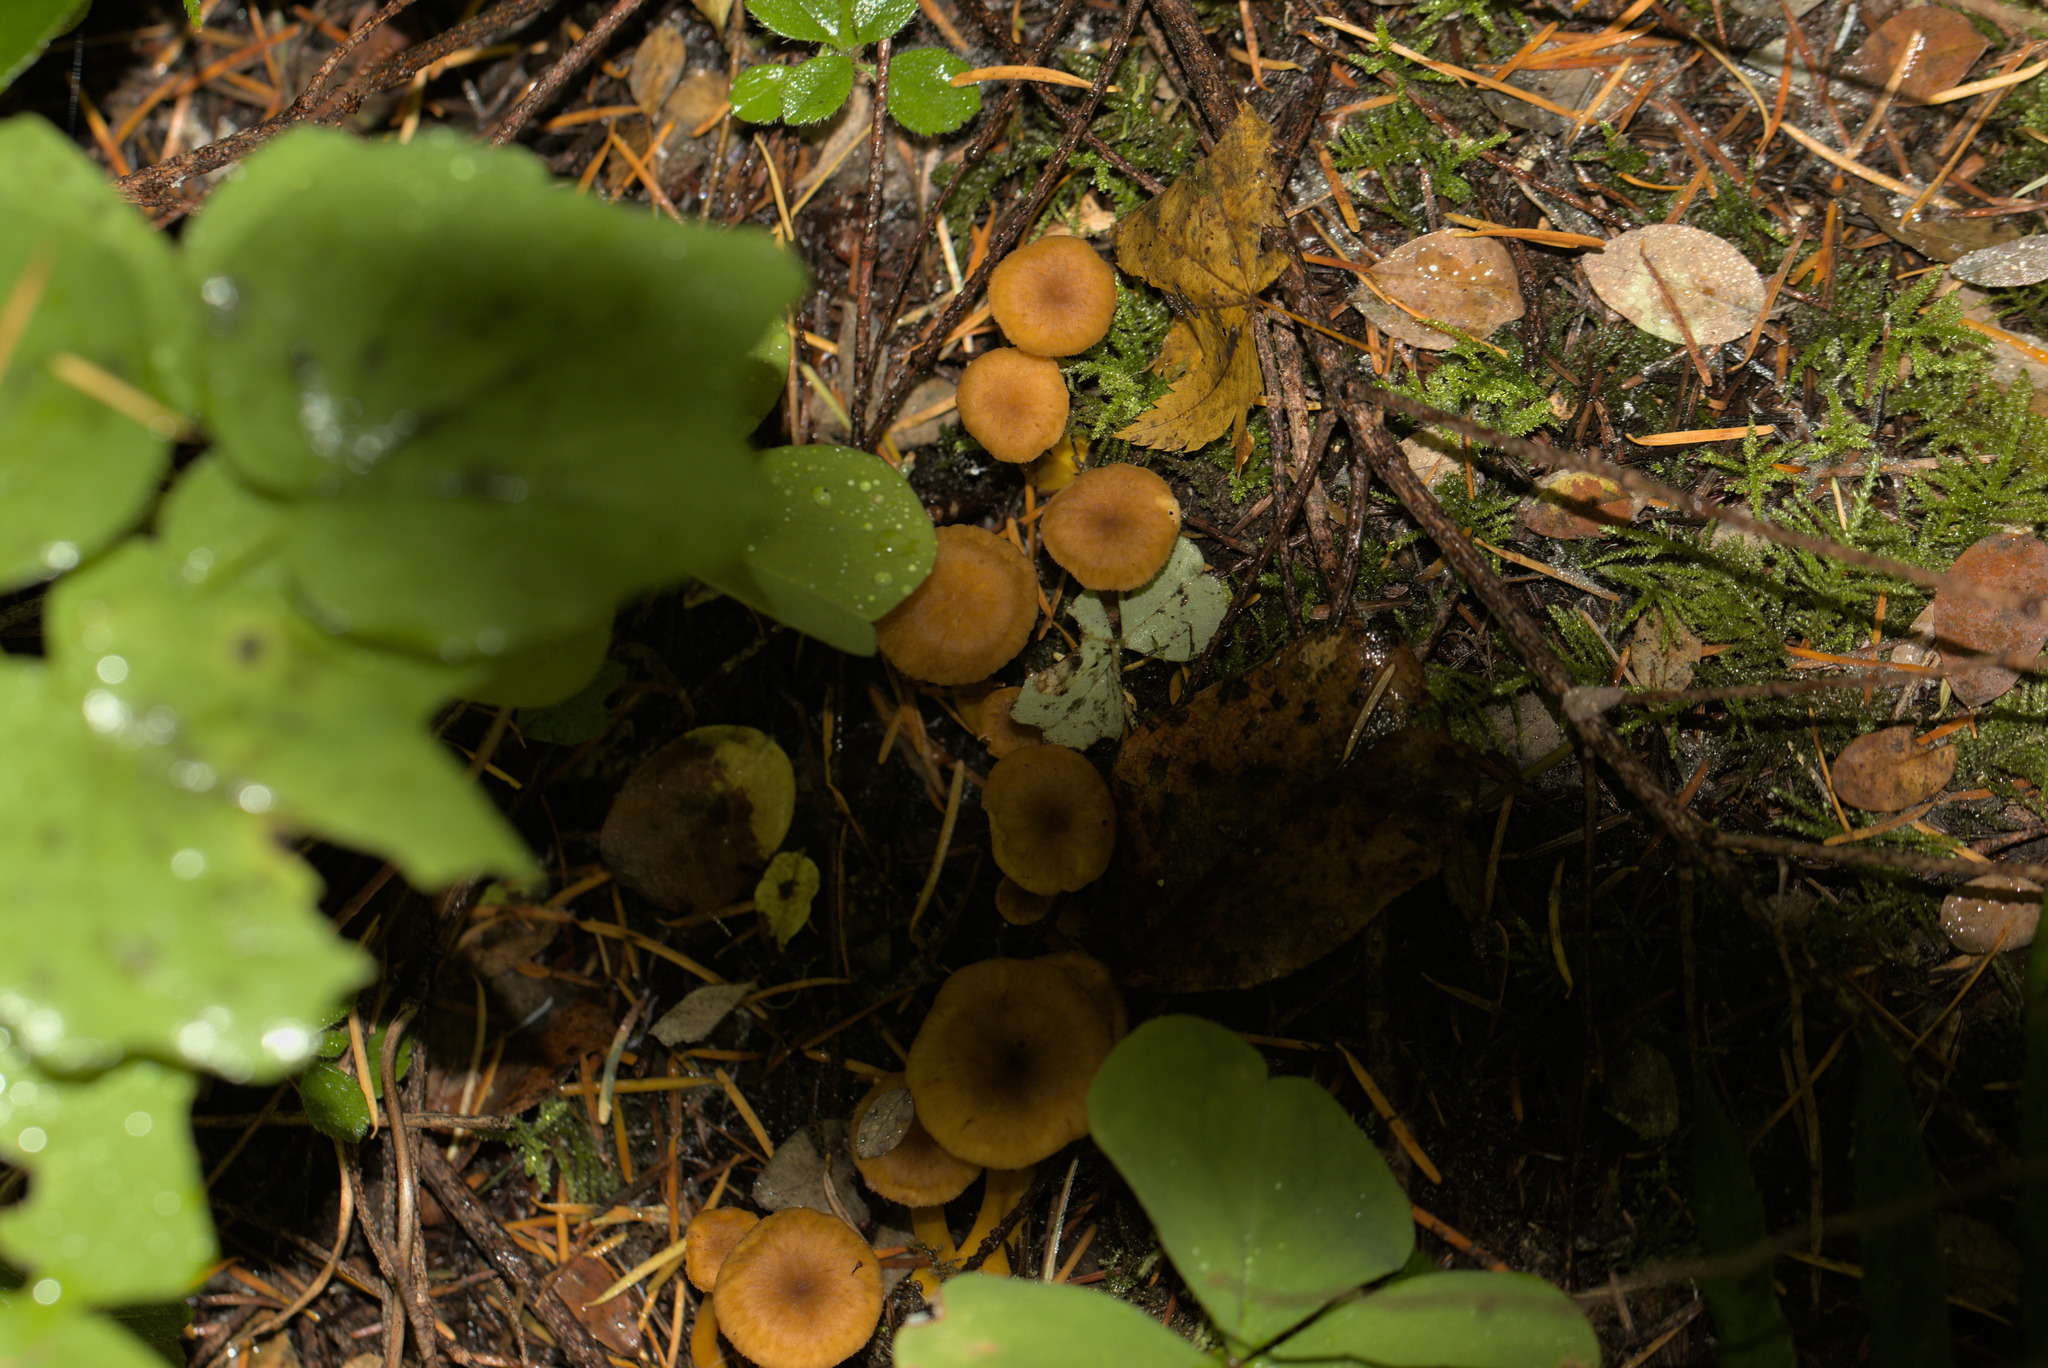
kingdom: Fungi
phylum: Basidiomycota
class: Agaricomycetes
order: Cantharellales
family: Hydnaceae
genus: Craterellus
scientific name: Craterellus tubaeformis
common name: Yellowfoot
